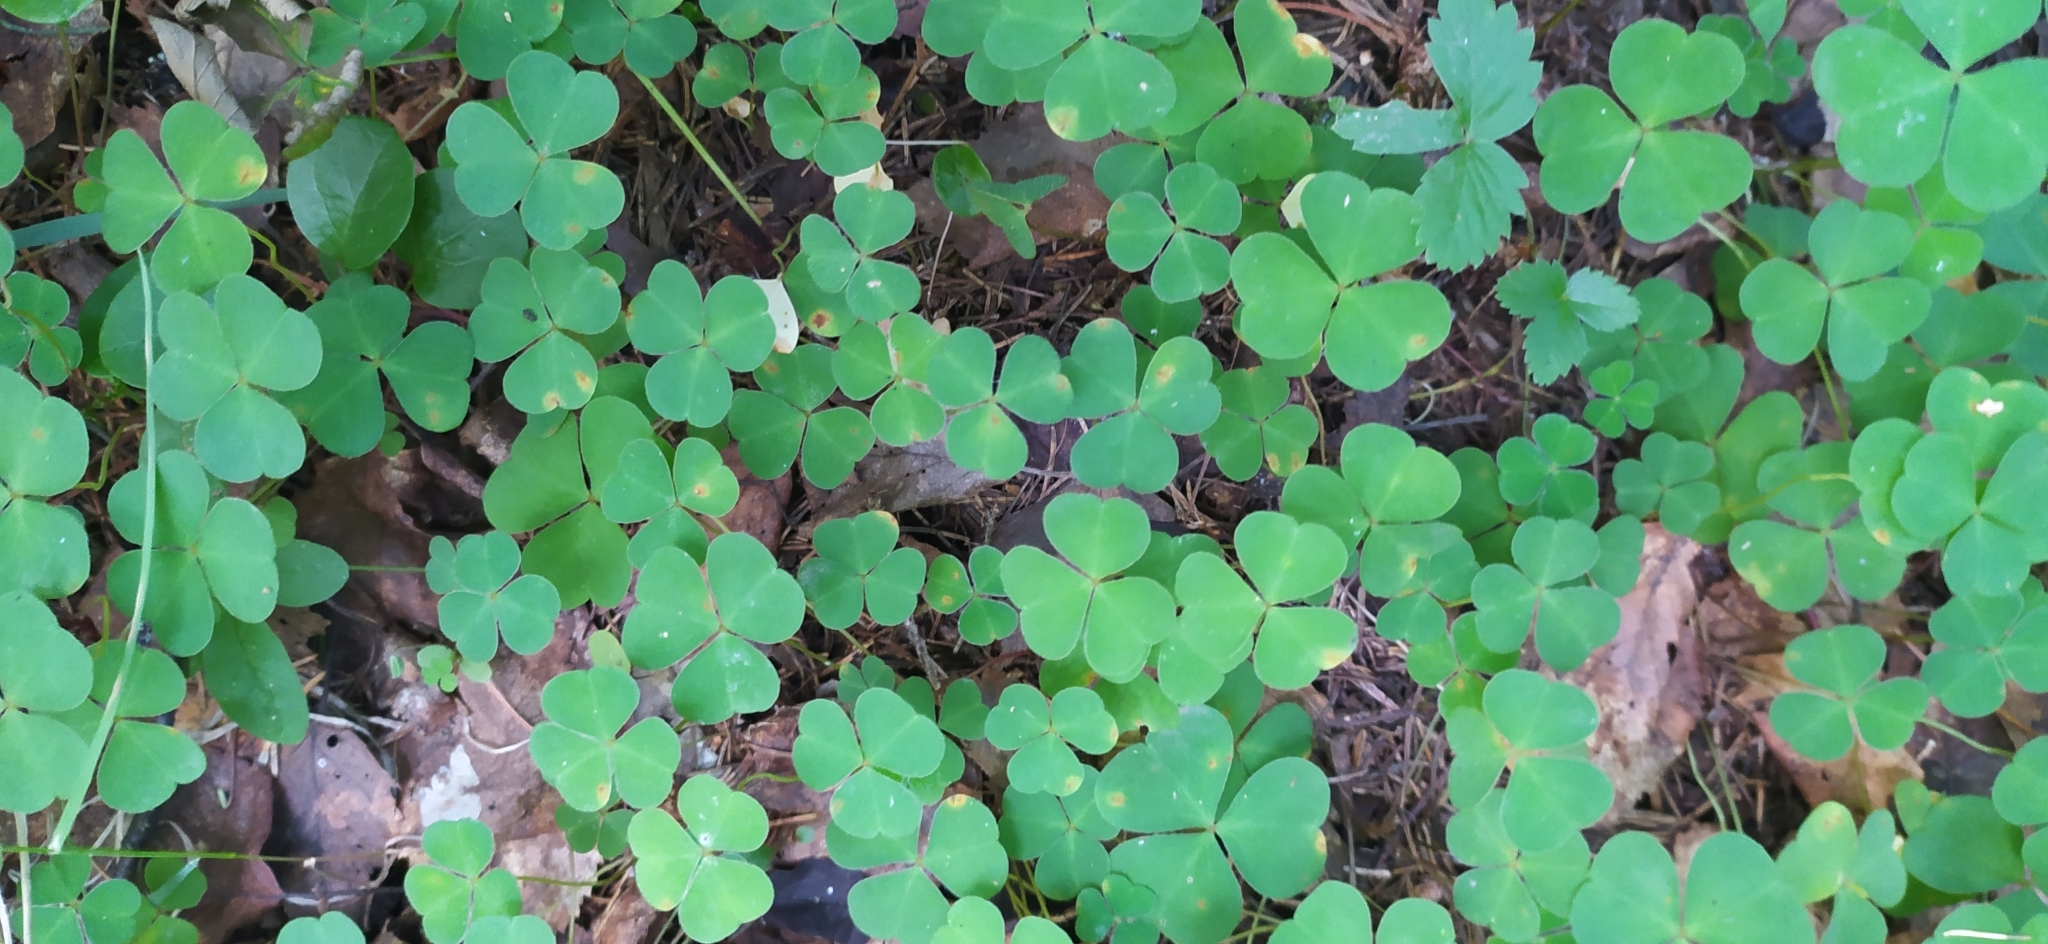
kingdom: Plantae
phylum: Tracheophyta
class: Magnoliopsida
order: Oxalidales
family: Oxalidaceae
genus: Oxalis
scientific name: Oxalis acetosella
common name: Wood-sorrel
